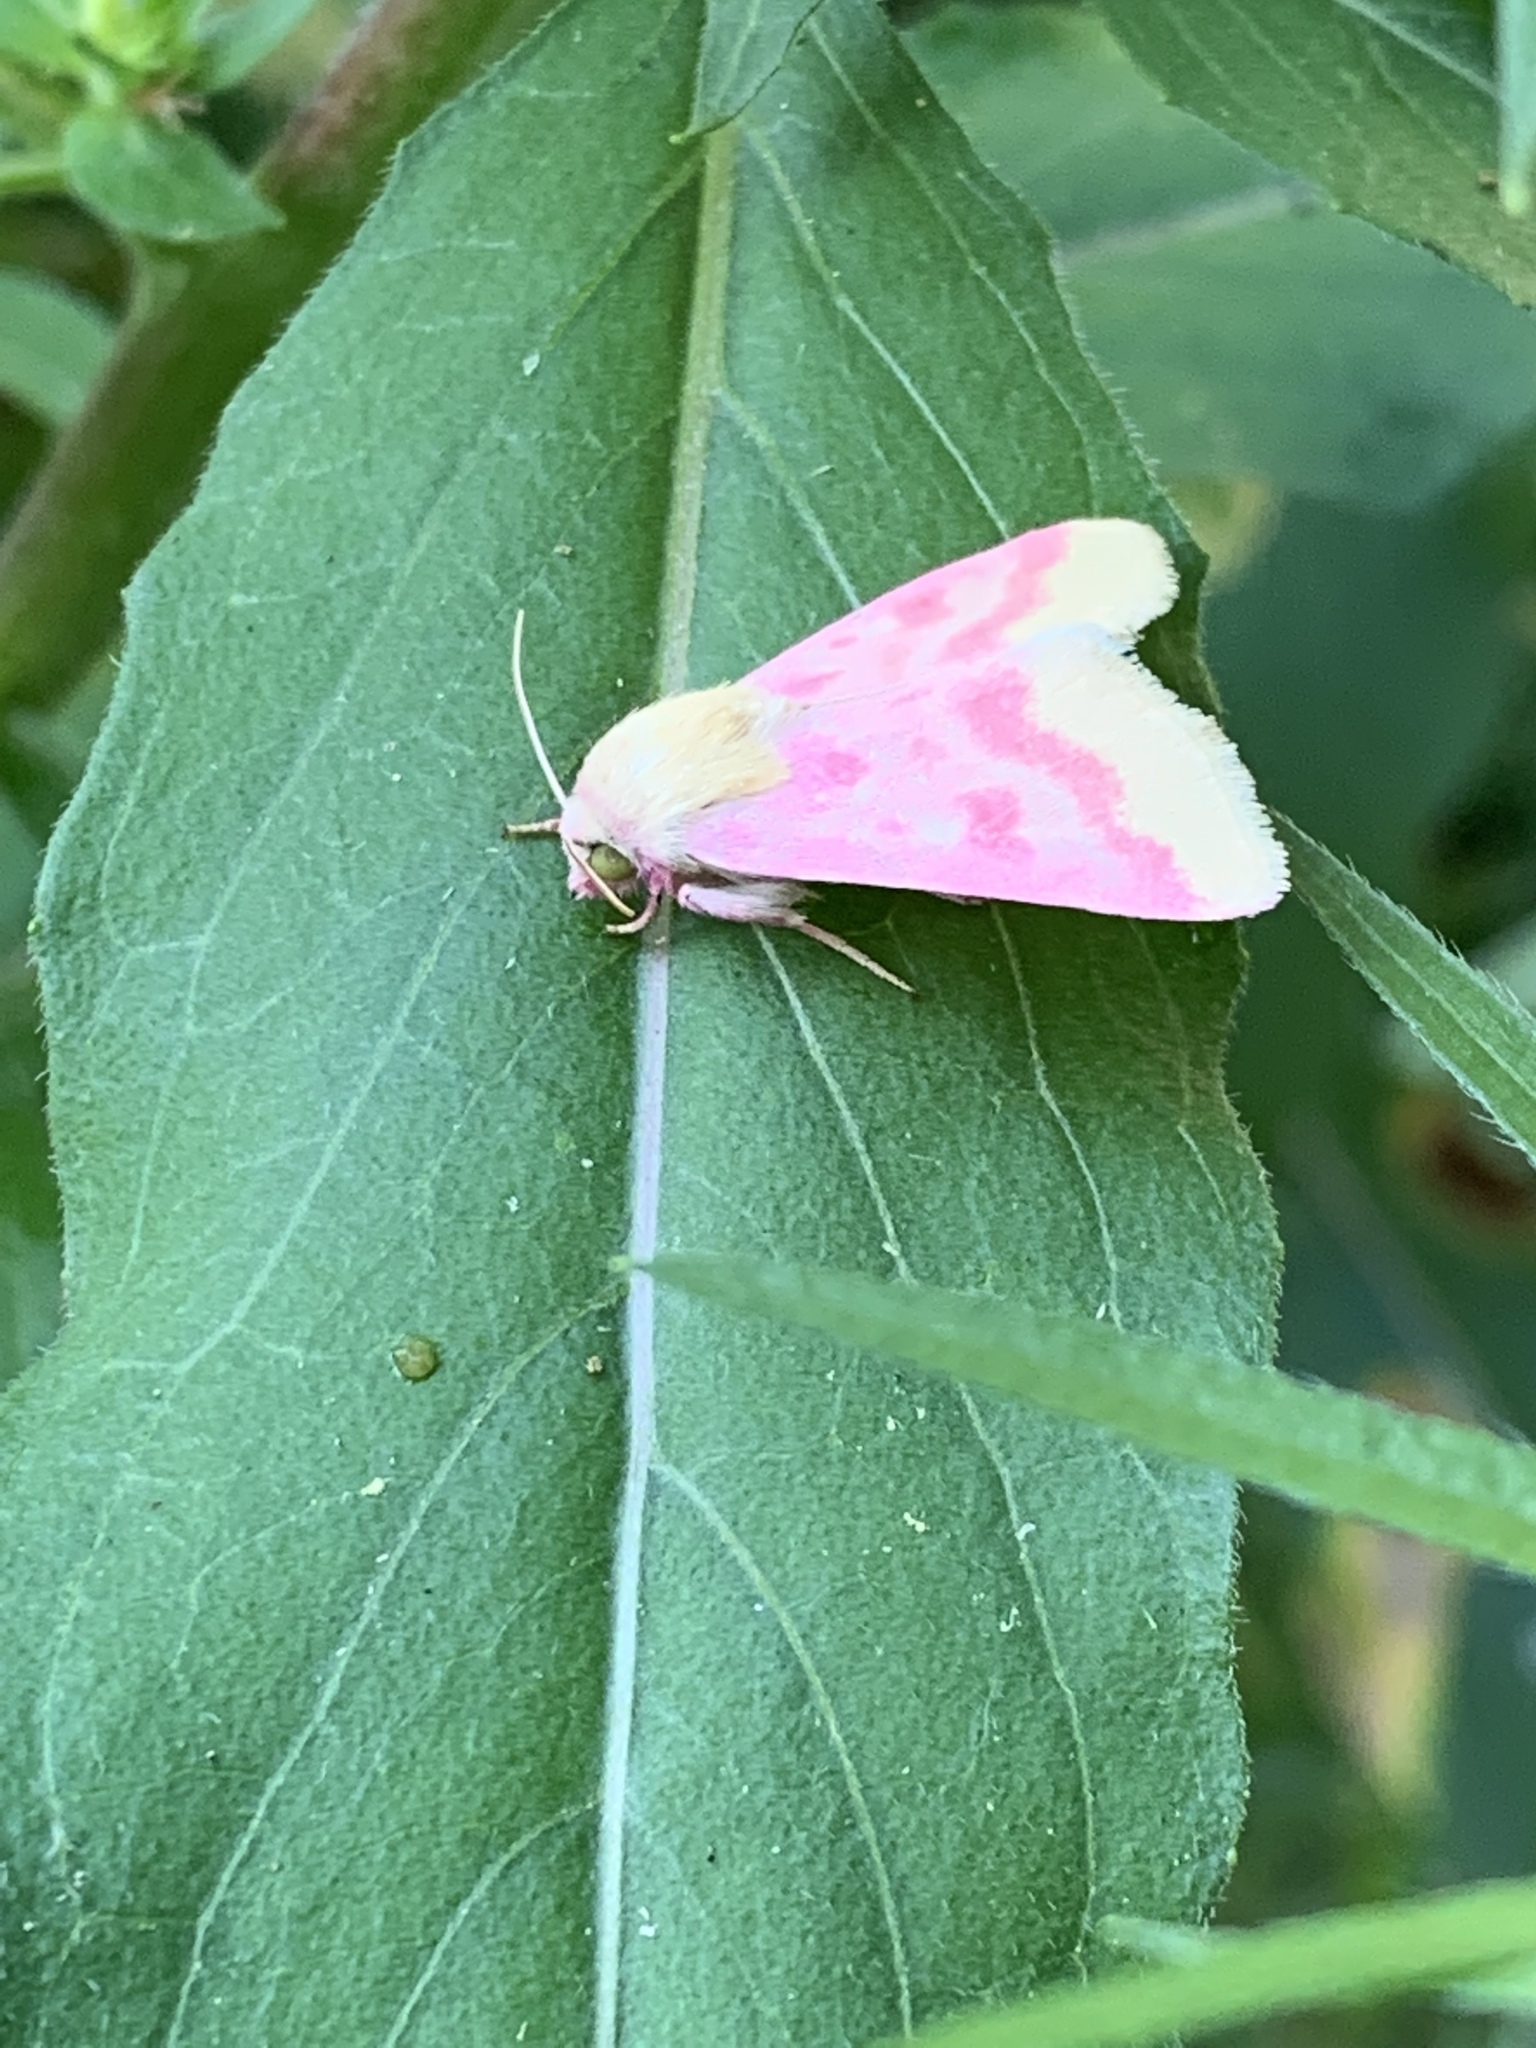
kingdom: Animalia
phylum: Arthropoda
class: Insecta
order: Lepidoptera
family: Noctuidae
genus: Schinia
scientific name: Schinia florida
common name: Primrose moth
